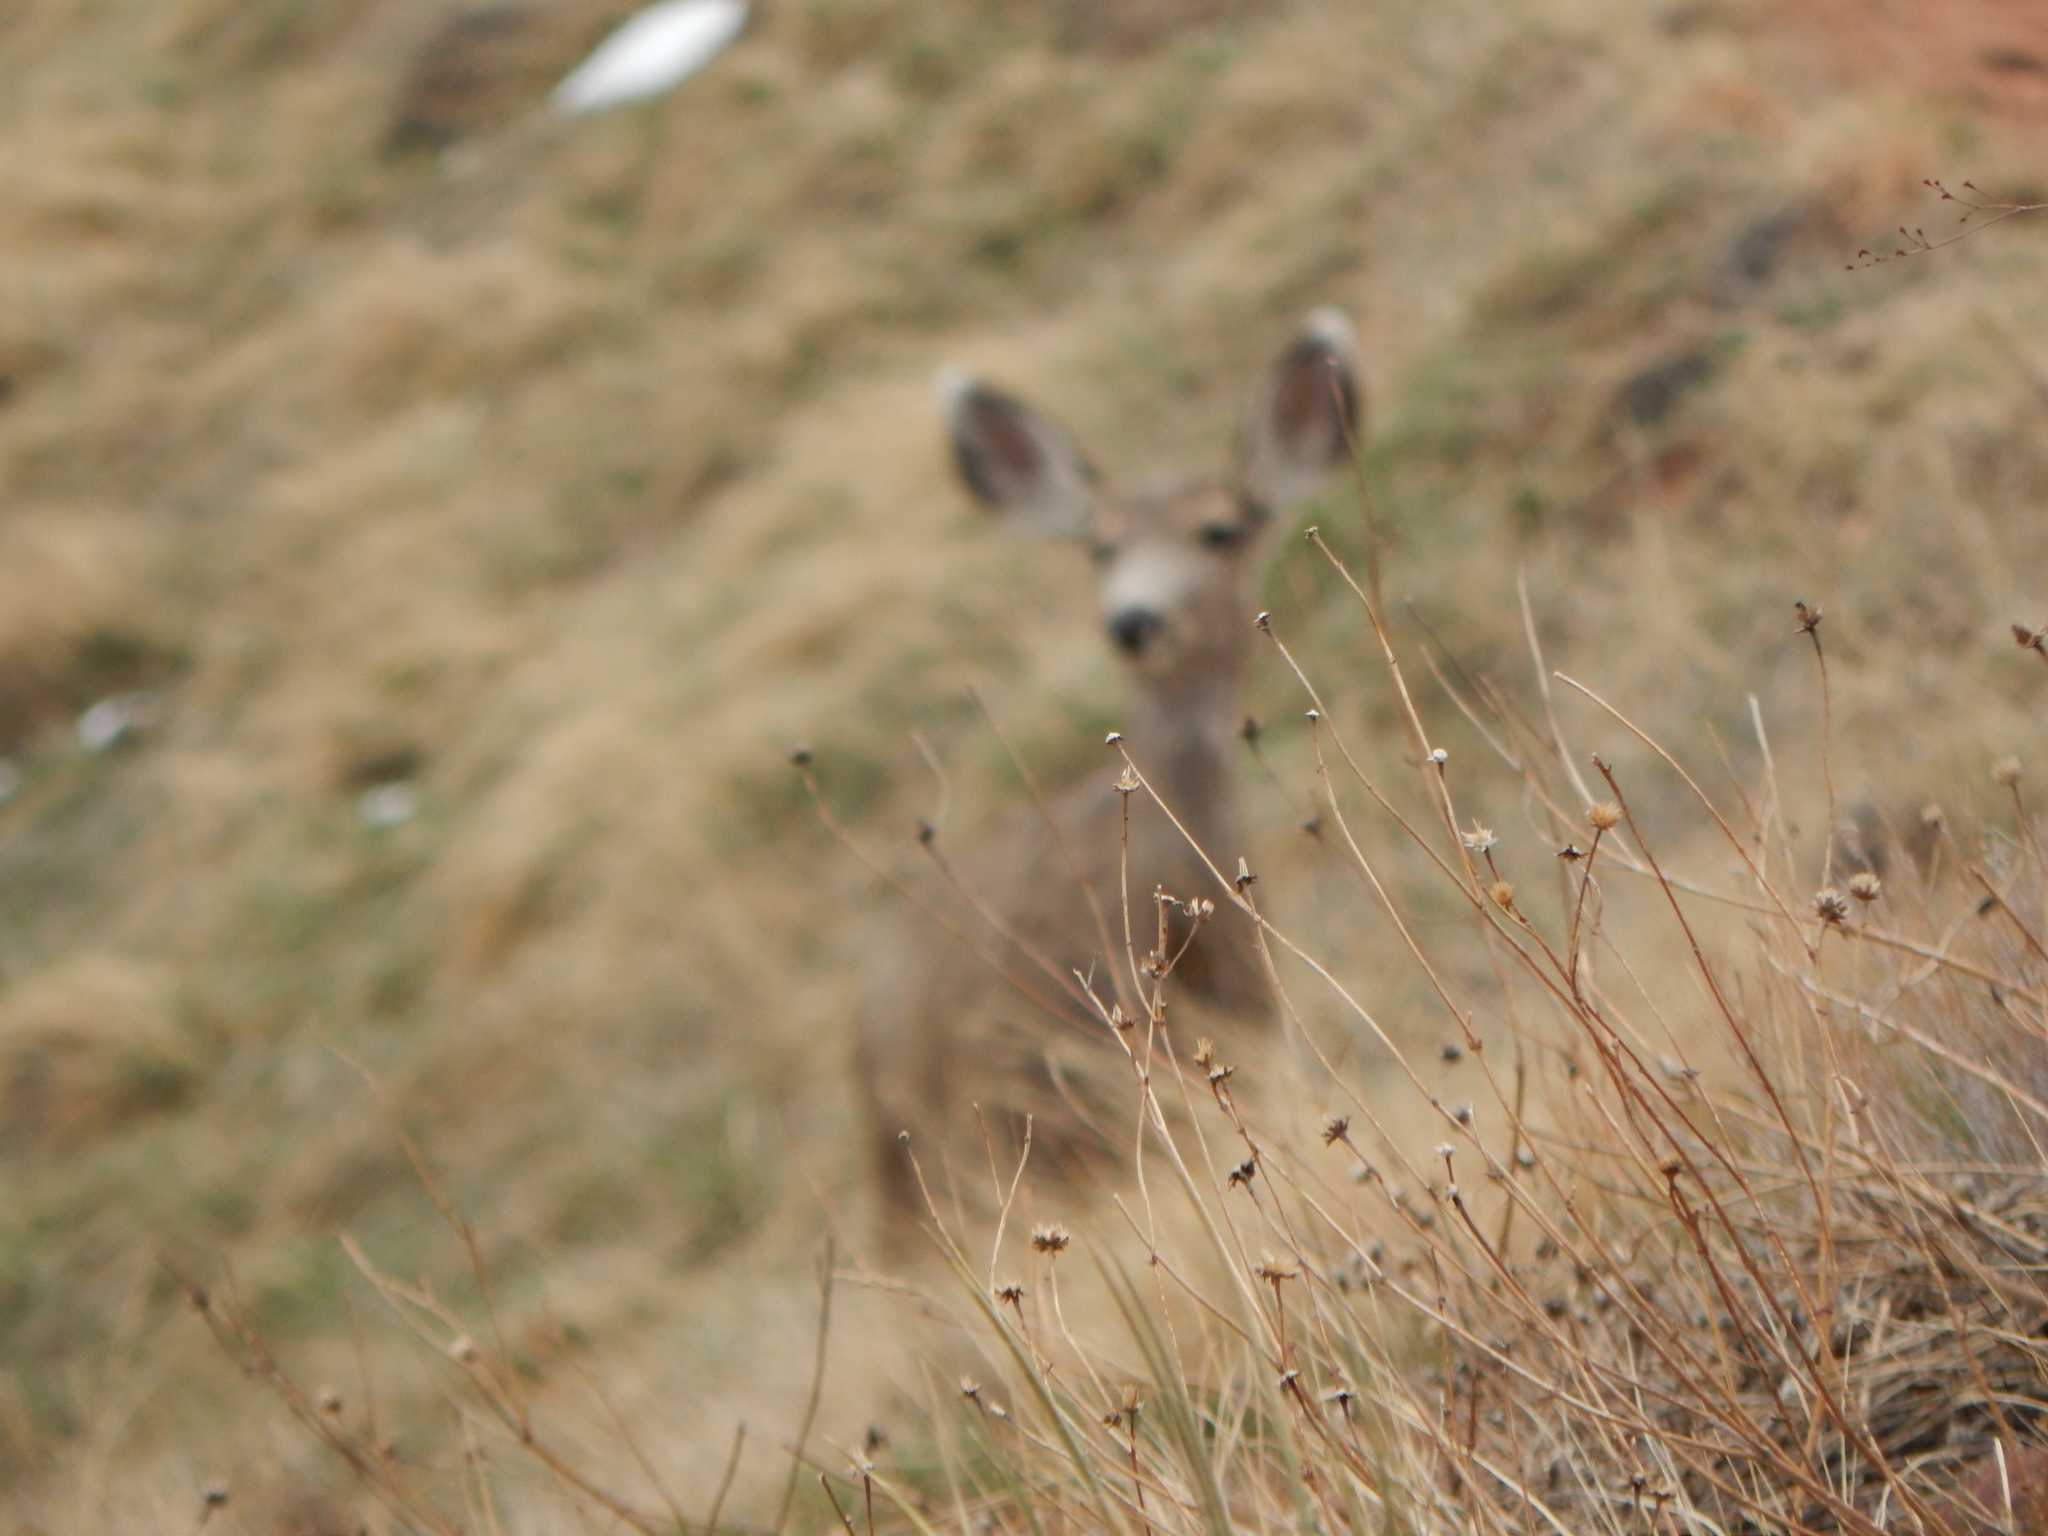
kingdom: Animalia
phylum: Chordata
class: Mammalia
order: Artiodactyla
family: Cervidae
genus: Odocoileus
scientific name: Odocoileus hemionus
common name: Mule deer
